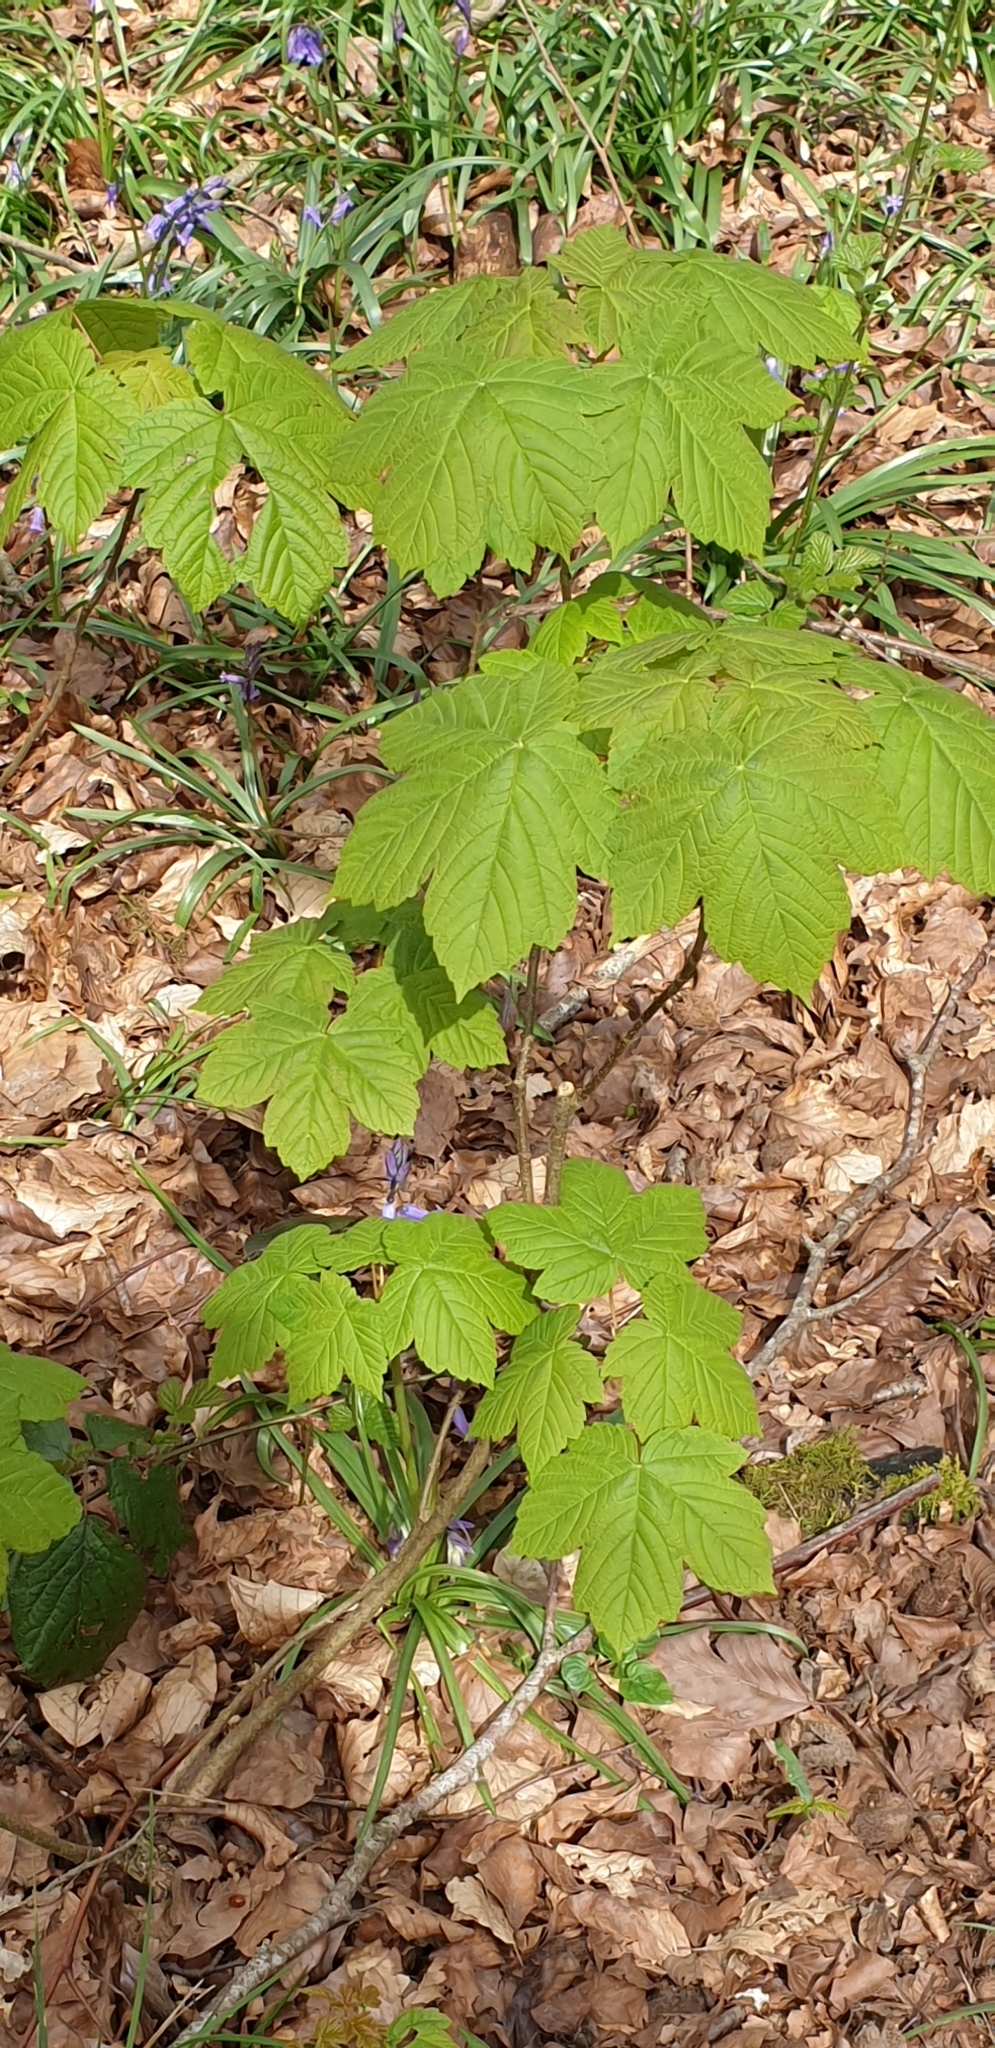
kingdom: Plantae
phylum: Tracheophyta
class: Magnoliopsida
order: Sapindales
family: Sapindaceae
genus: Acer
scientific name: Acer pseudoplatanus
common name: Sycamore
